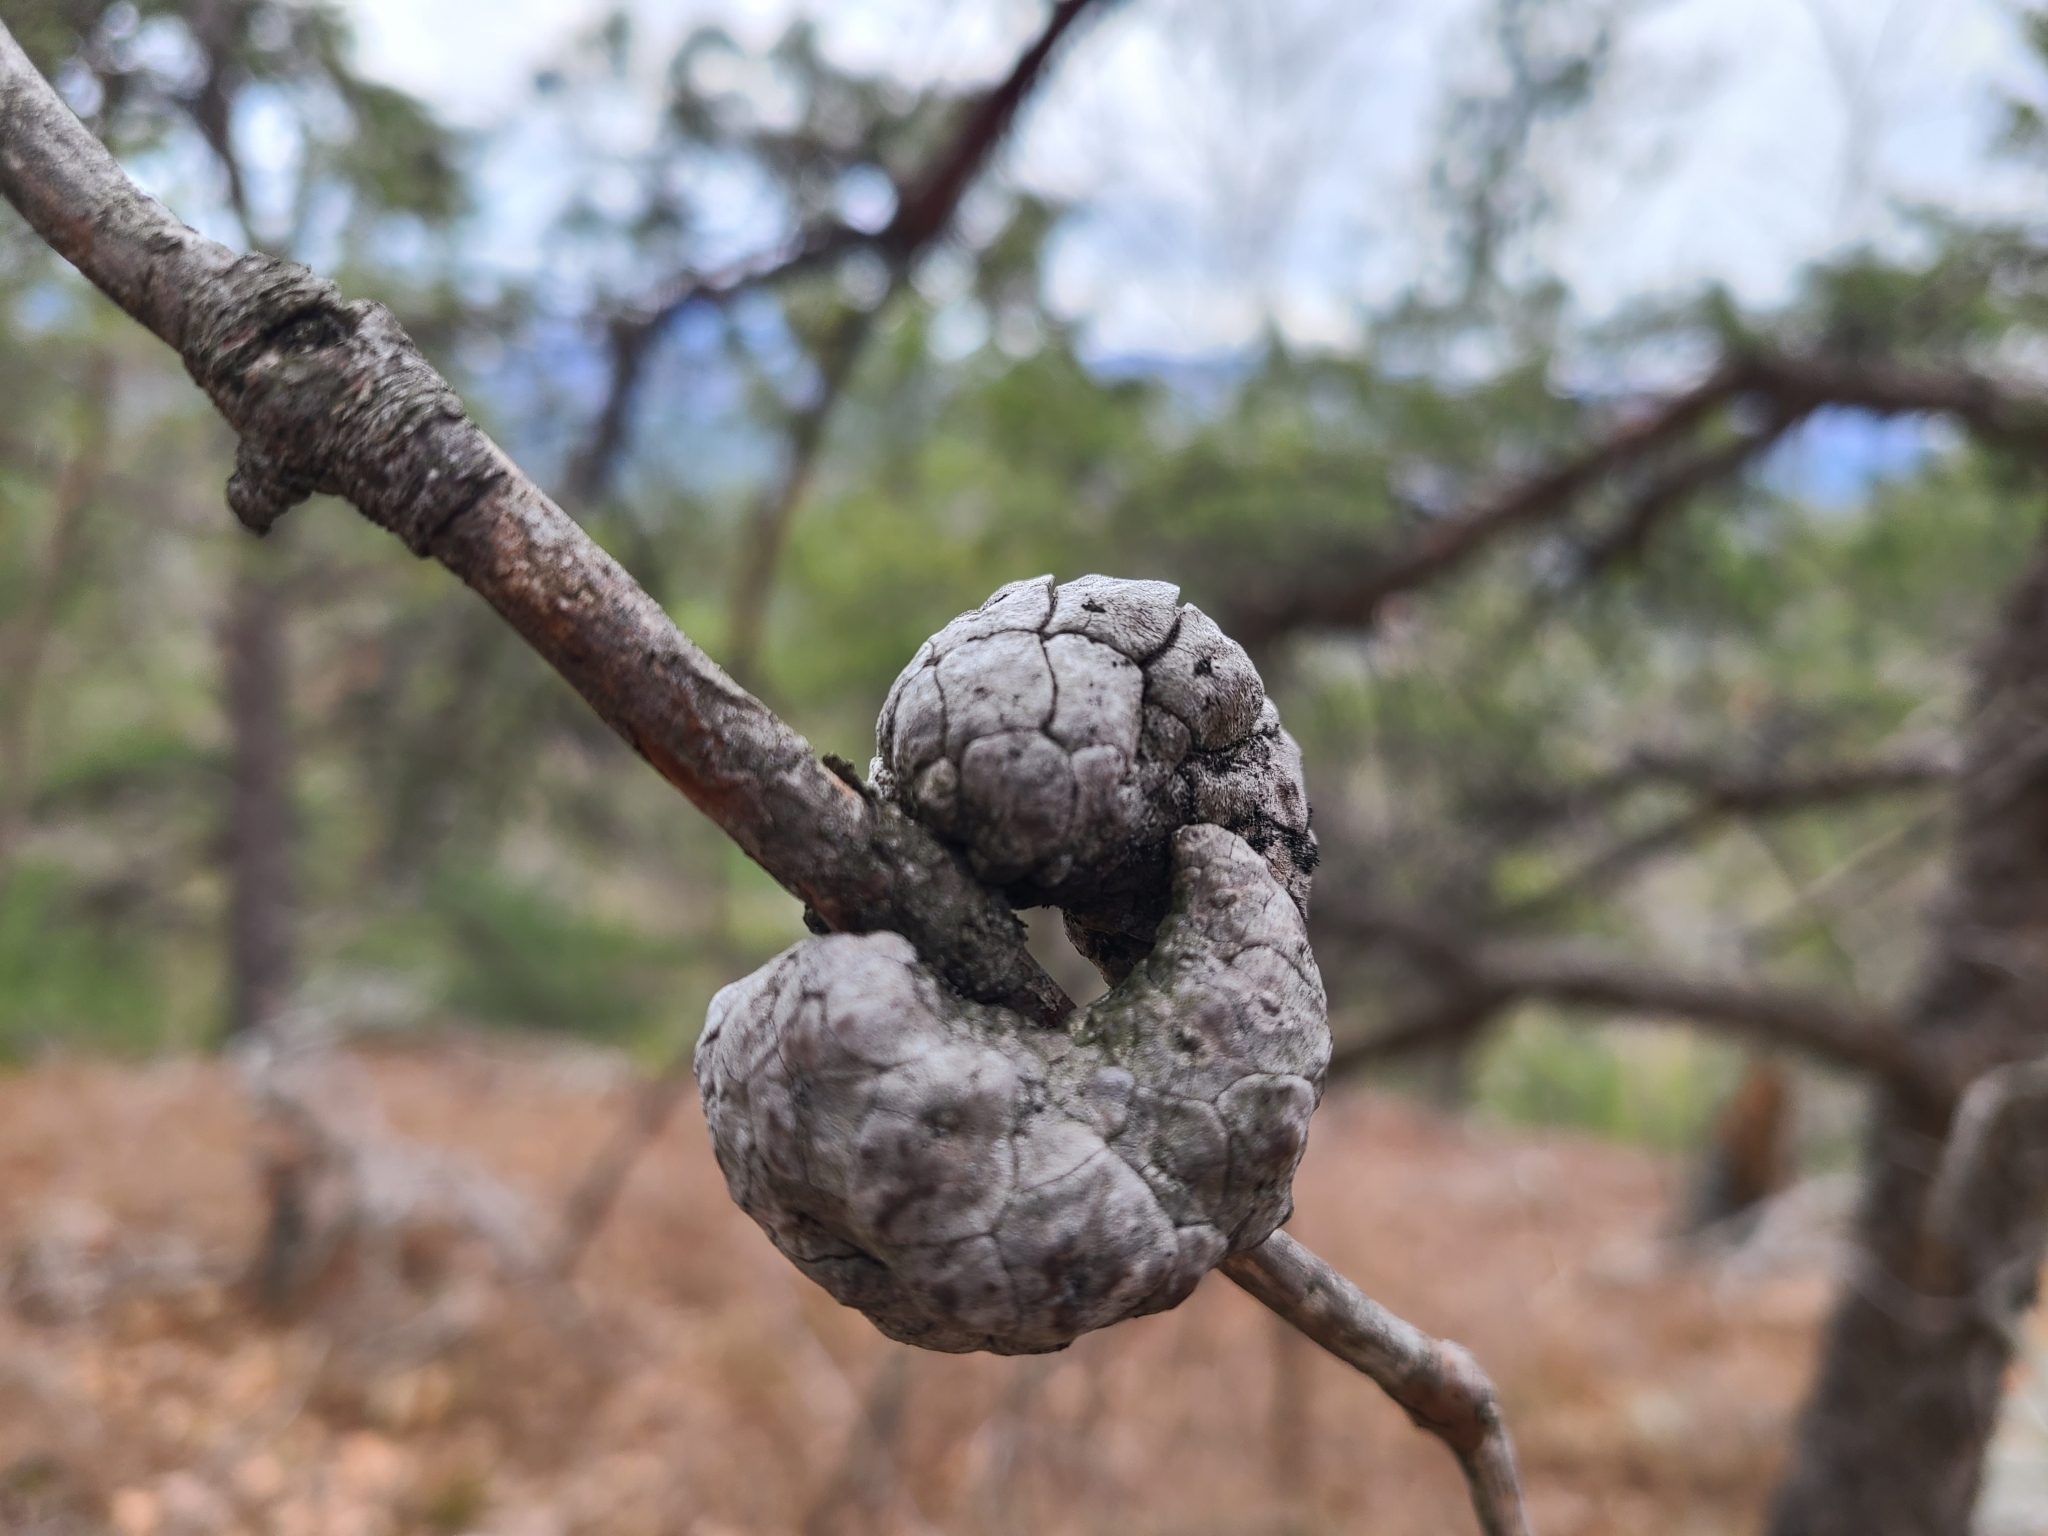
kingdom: Plantae
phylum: Tracheophyta
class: Pinopsida
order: Pinales
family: Pinaceae
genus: Pinus
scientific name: Pinus banksiana
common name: Jack pine
